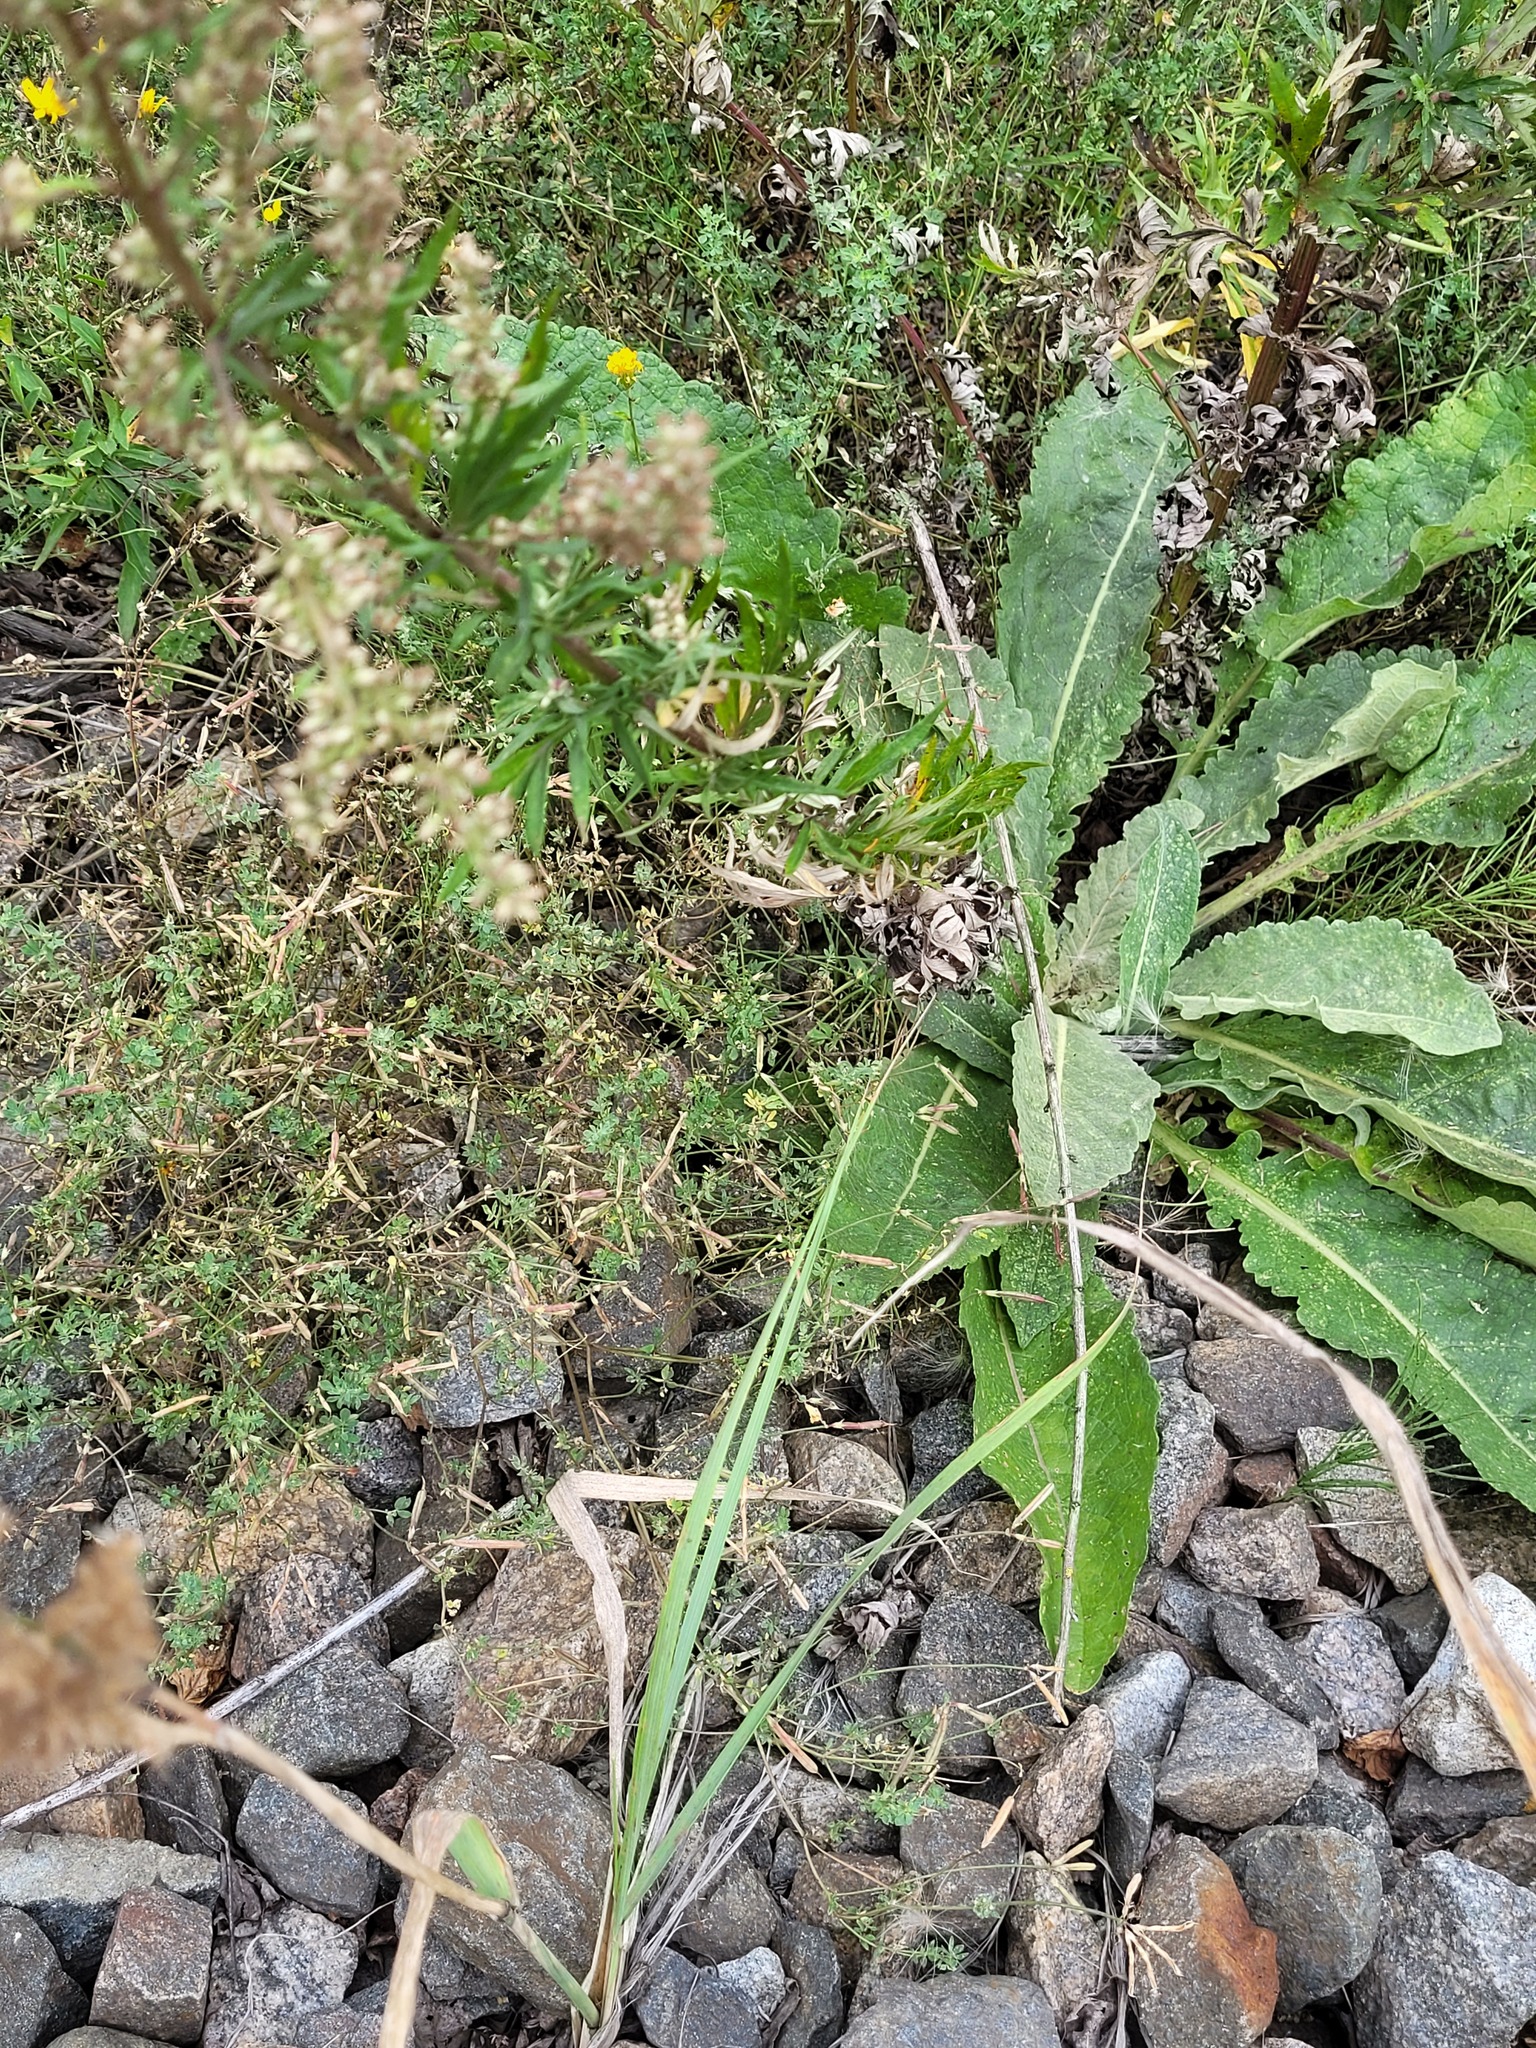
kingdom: Plantae
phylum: Tracheophyta
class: Magnoliopsida
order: Fabales
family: Fabaceae
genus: Lotus
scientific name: Lotus corniculatus
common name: Common bird's-foot-trefoil
